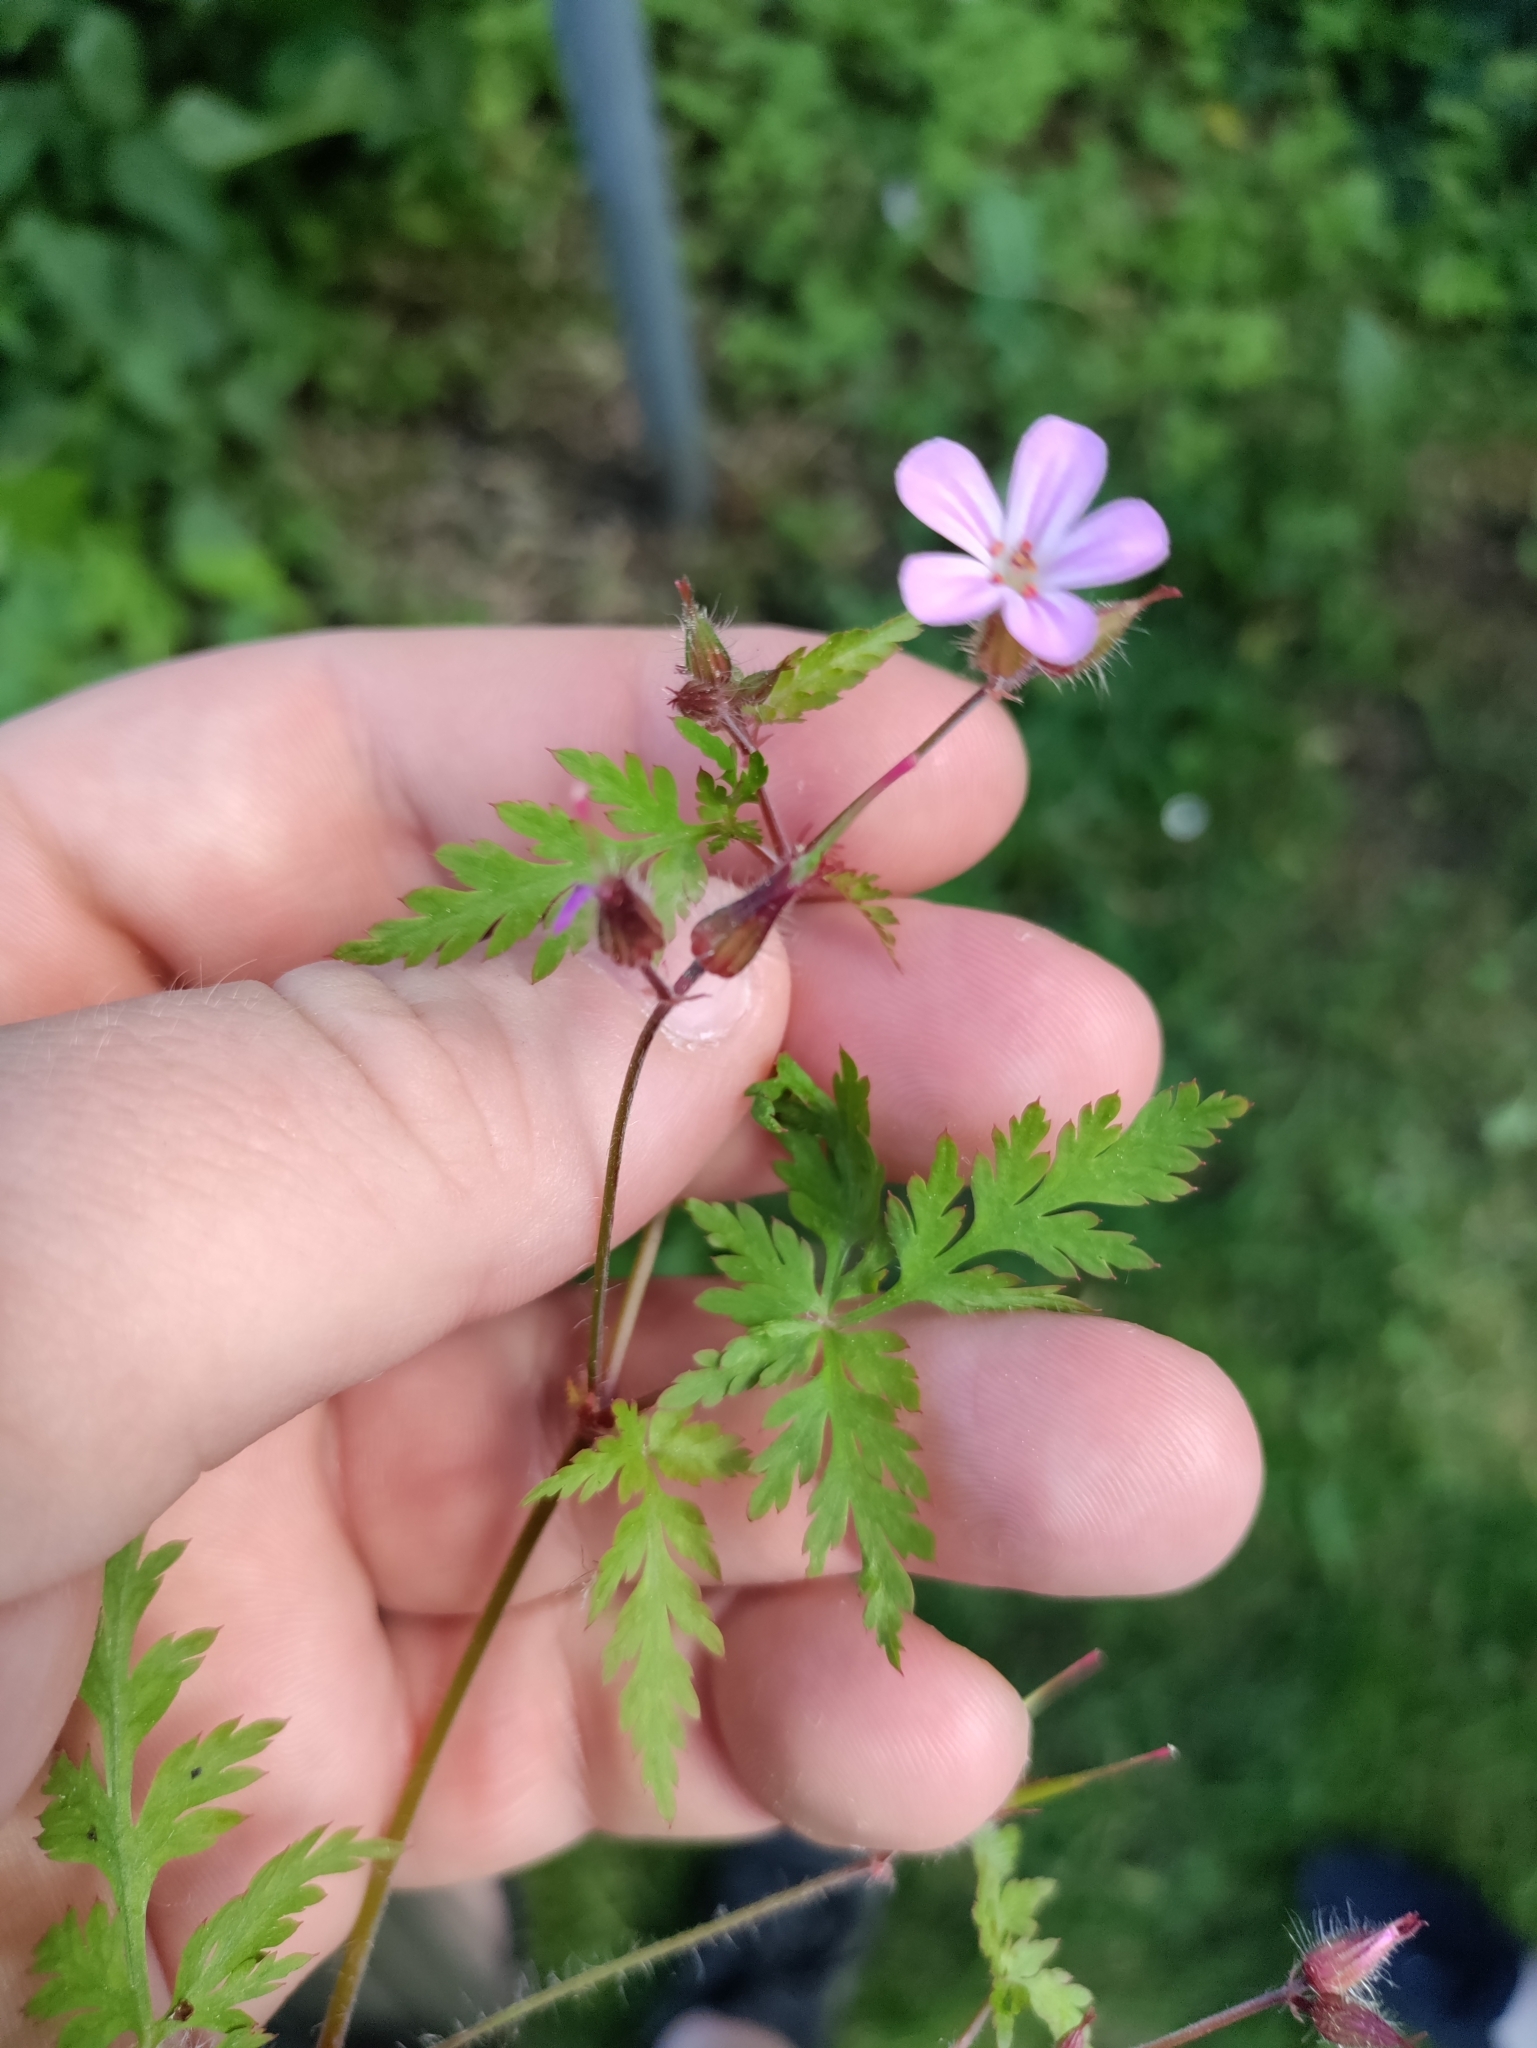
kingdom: Plantae
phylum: Tracheophyta
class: Magnoliopsida
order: Geraniales
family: Geraniaceae
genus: Geranium
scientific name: Geranium robertianum
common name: Herb-robert
